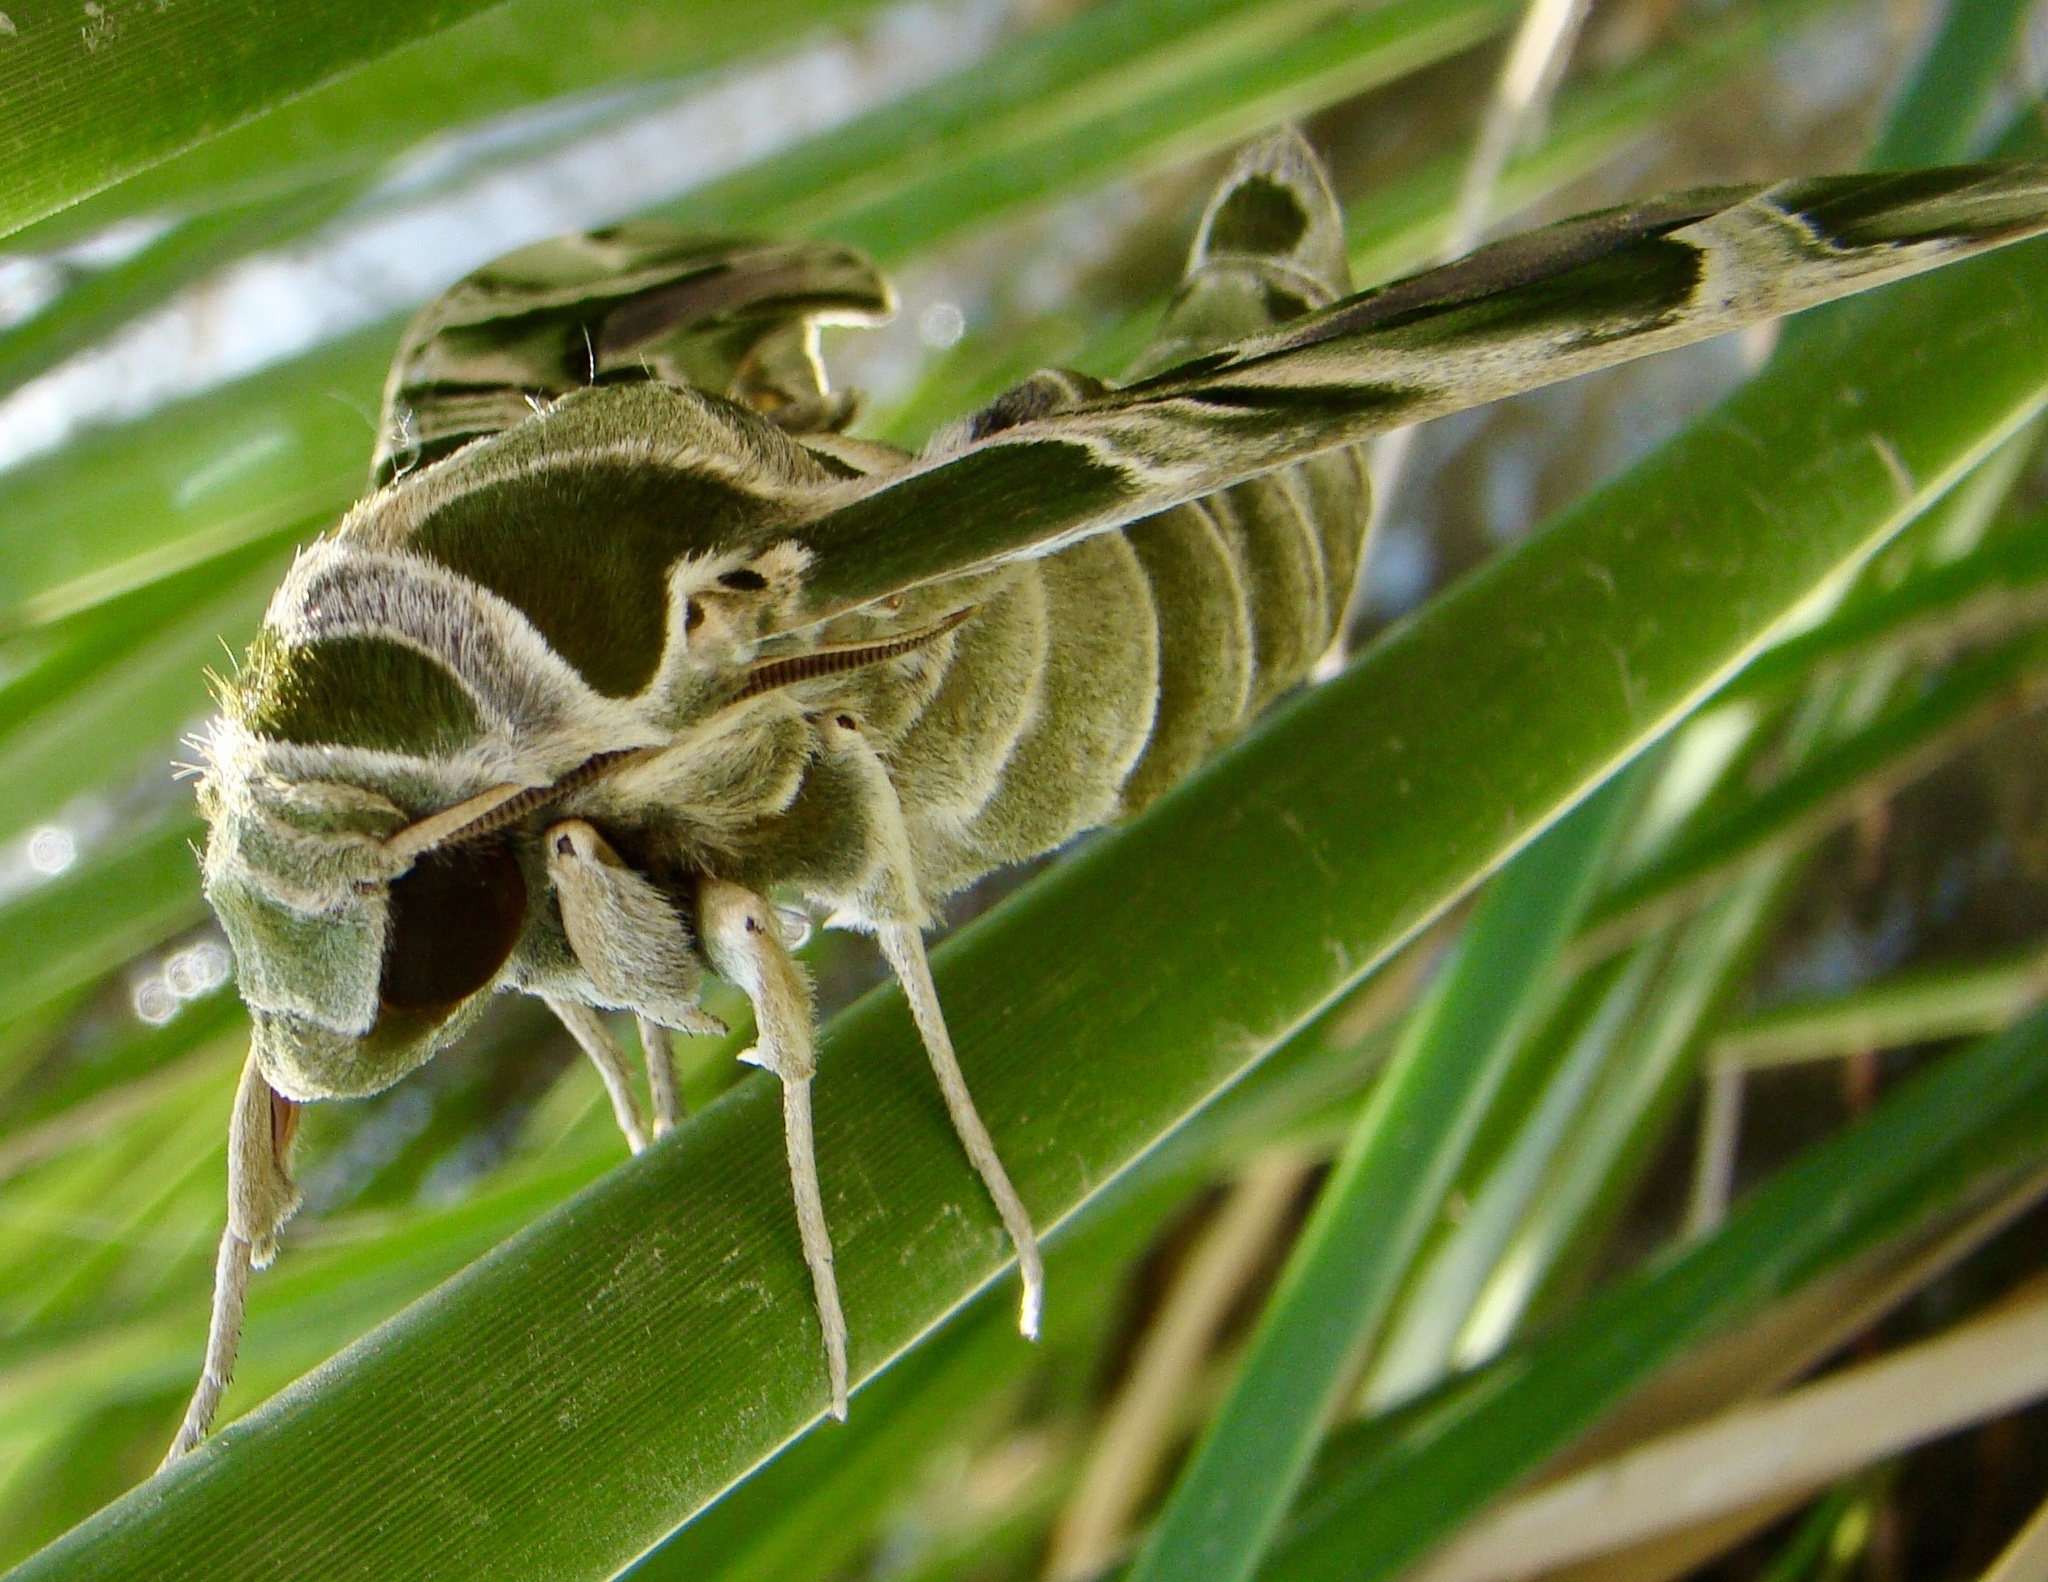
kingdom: Animalia
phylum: Arthropoda
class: Insecta
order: Lepidoptera
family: Sphingidae
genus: Daphnis
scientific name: Daphnis nerii
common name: Oleander hawk-moth
